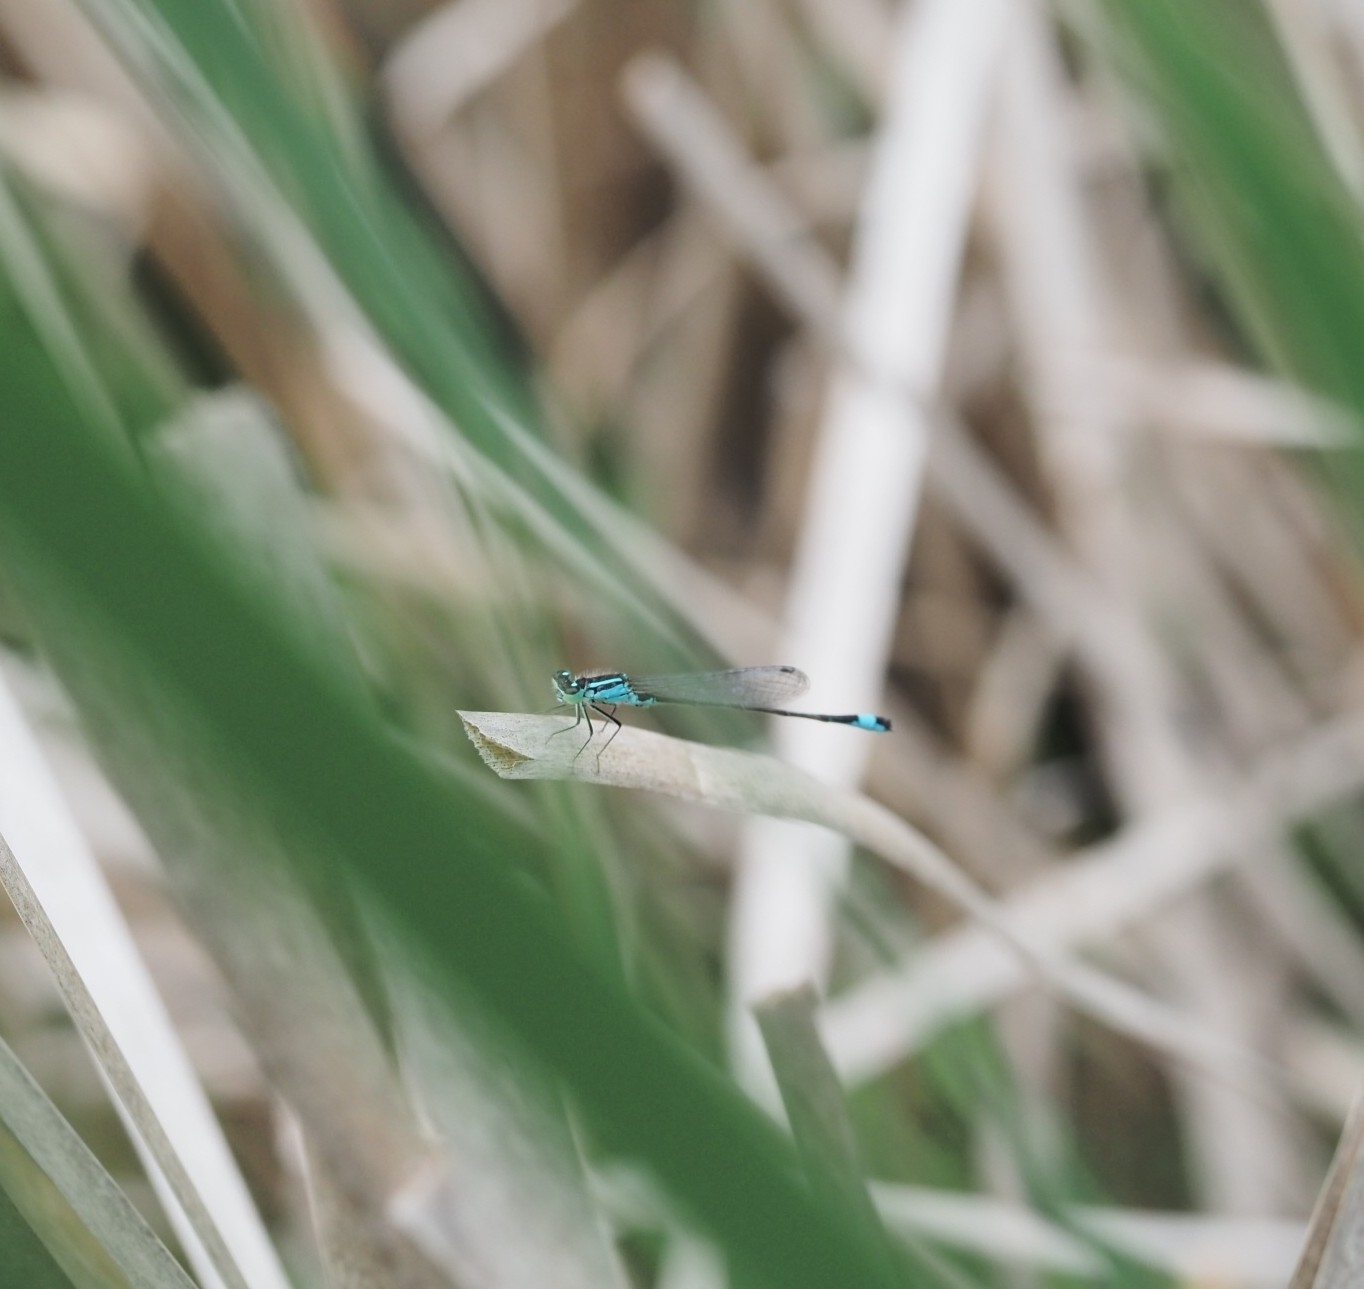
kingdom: Animalia
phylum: Arthropoda
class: Insecta
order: Odonata
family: Coenagrionidae
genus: Ischnura
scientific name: Ischnura elegans
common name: Blue-tailed damselfly
